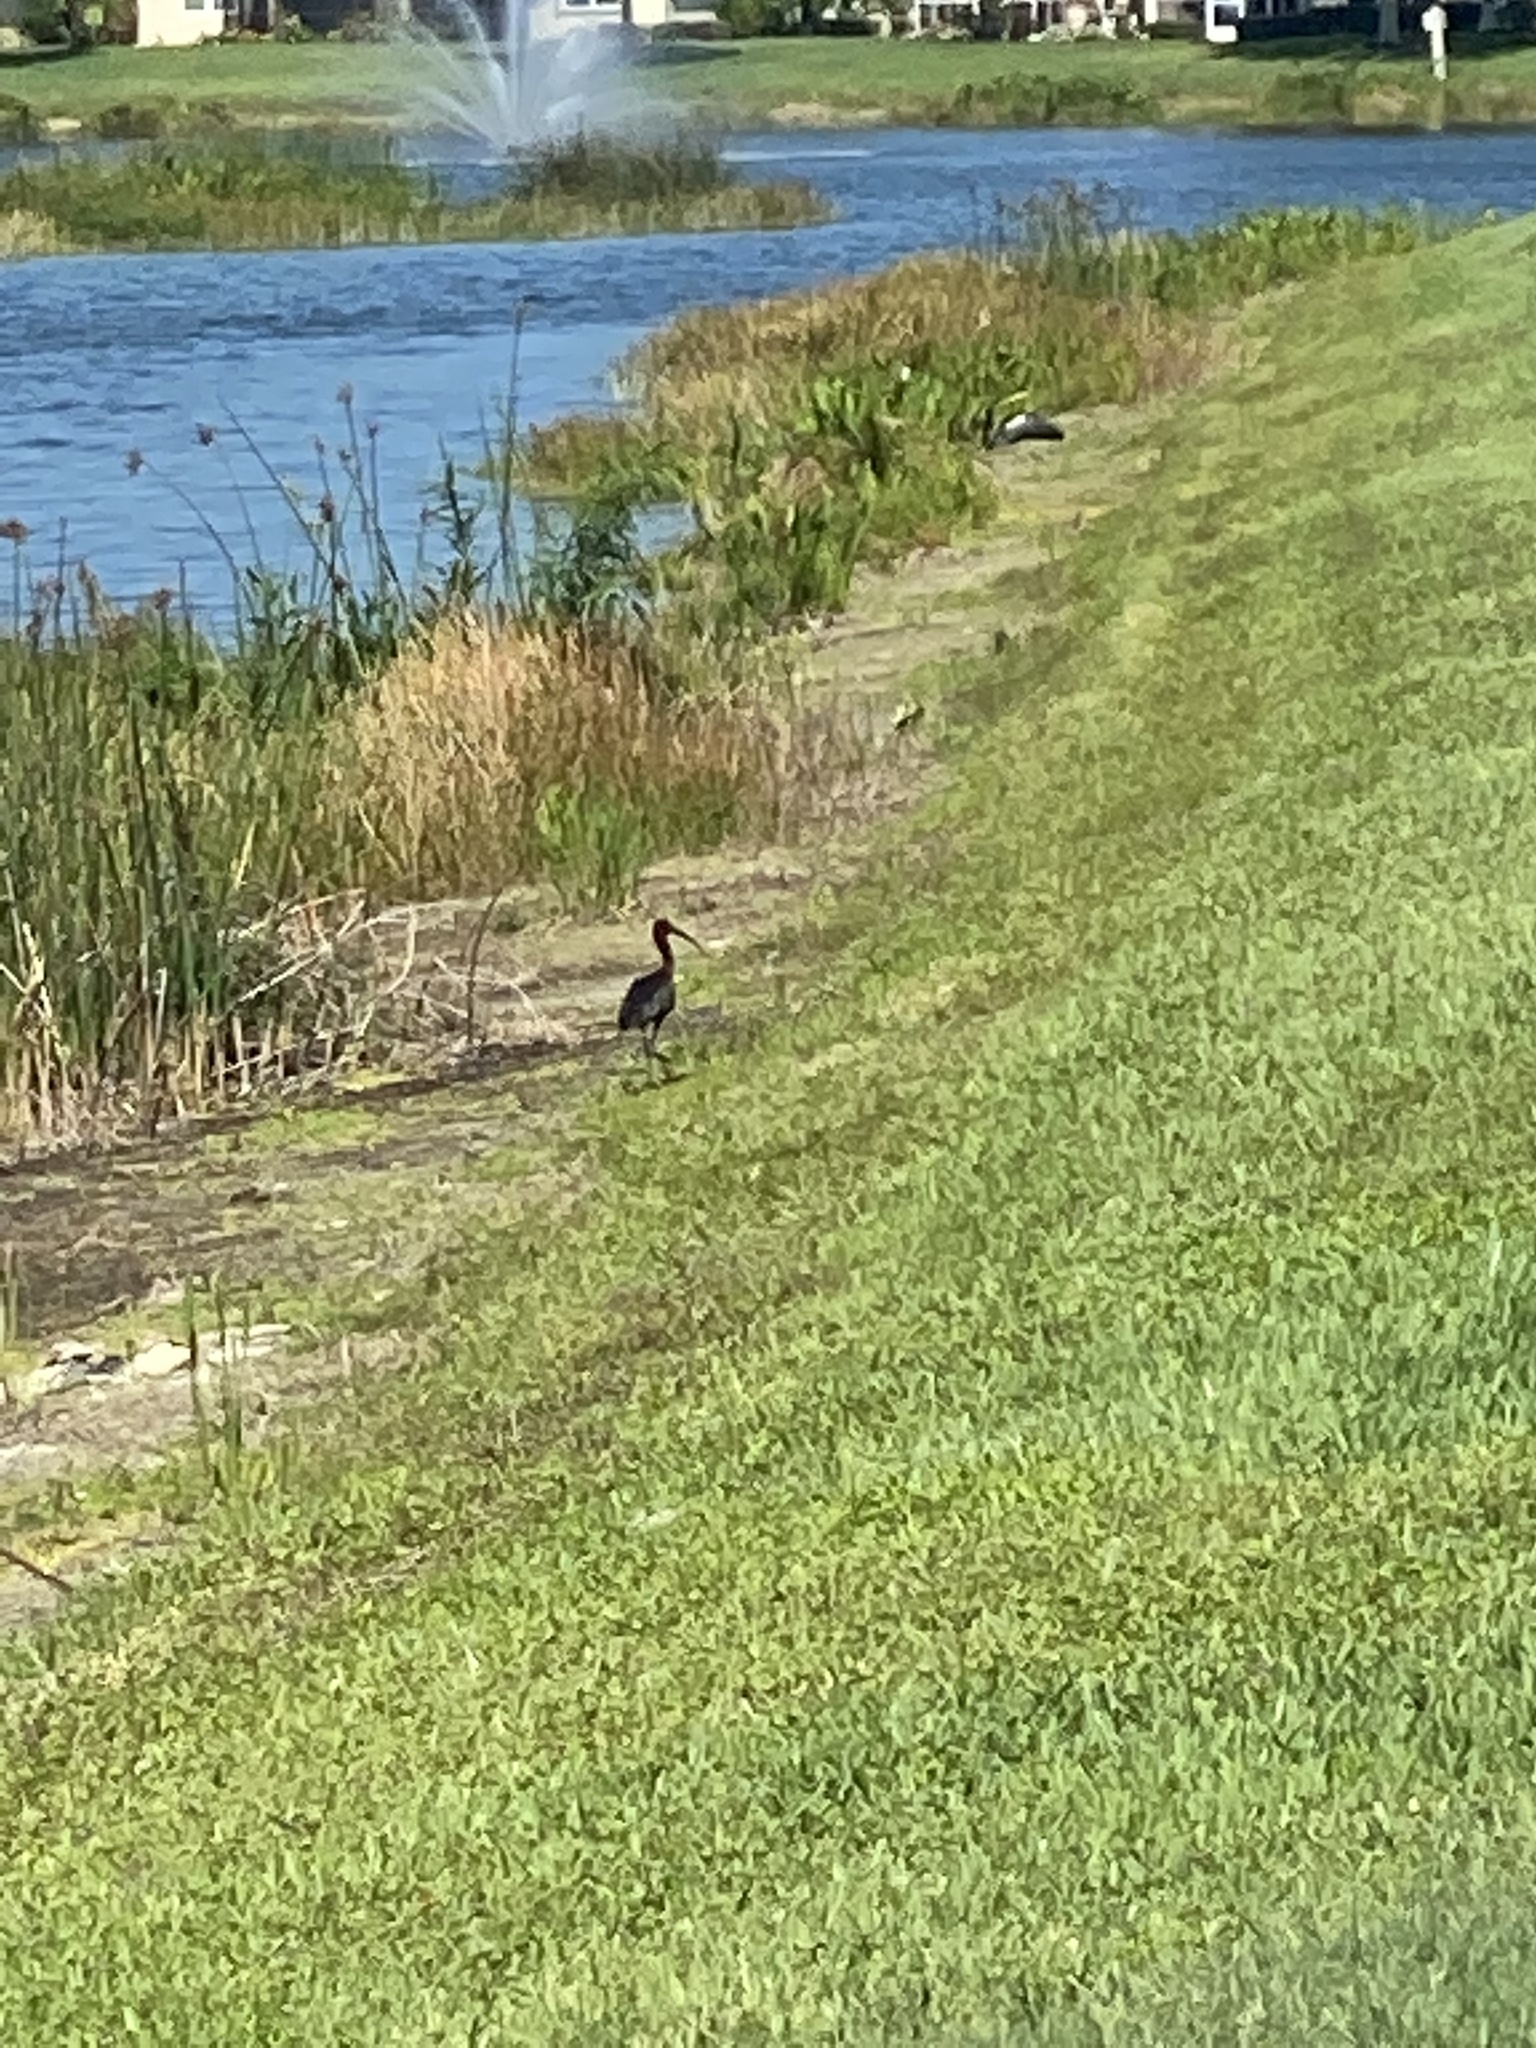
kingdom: Animalia
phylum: Chordata
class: Aves
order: Pelecaniformes
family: Threskiornithidae
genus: Plegadis
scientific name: Plegadis falcinellus
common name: Glossy ibis
